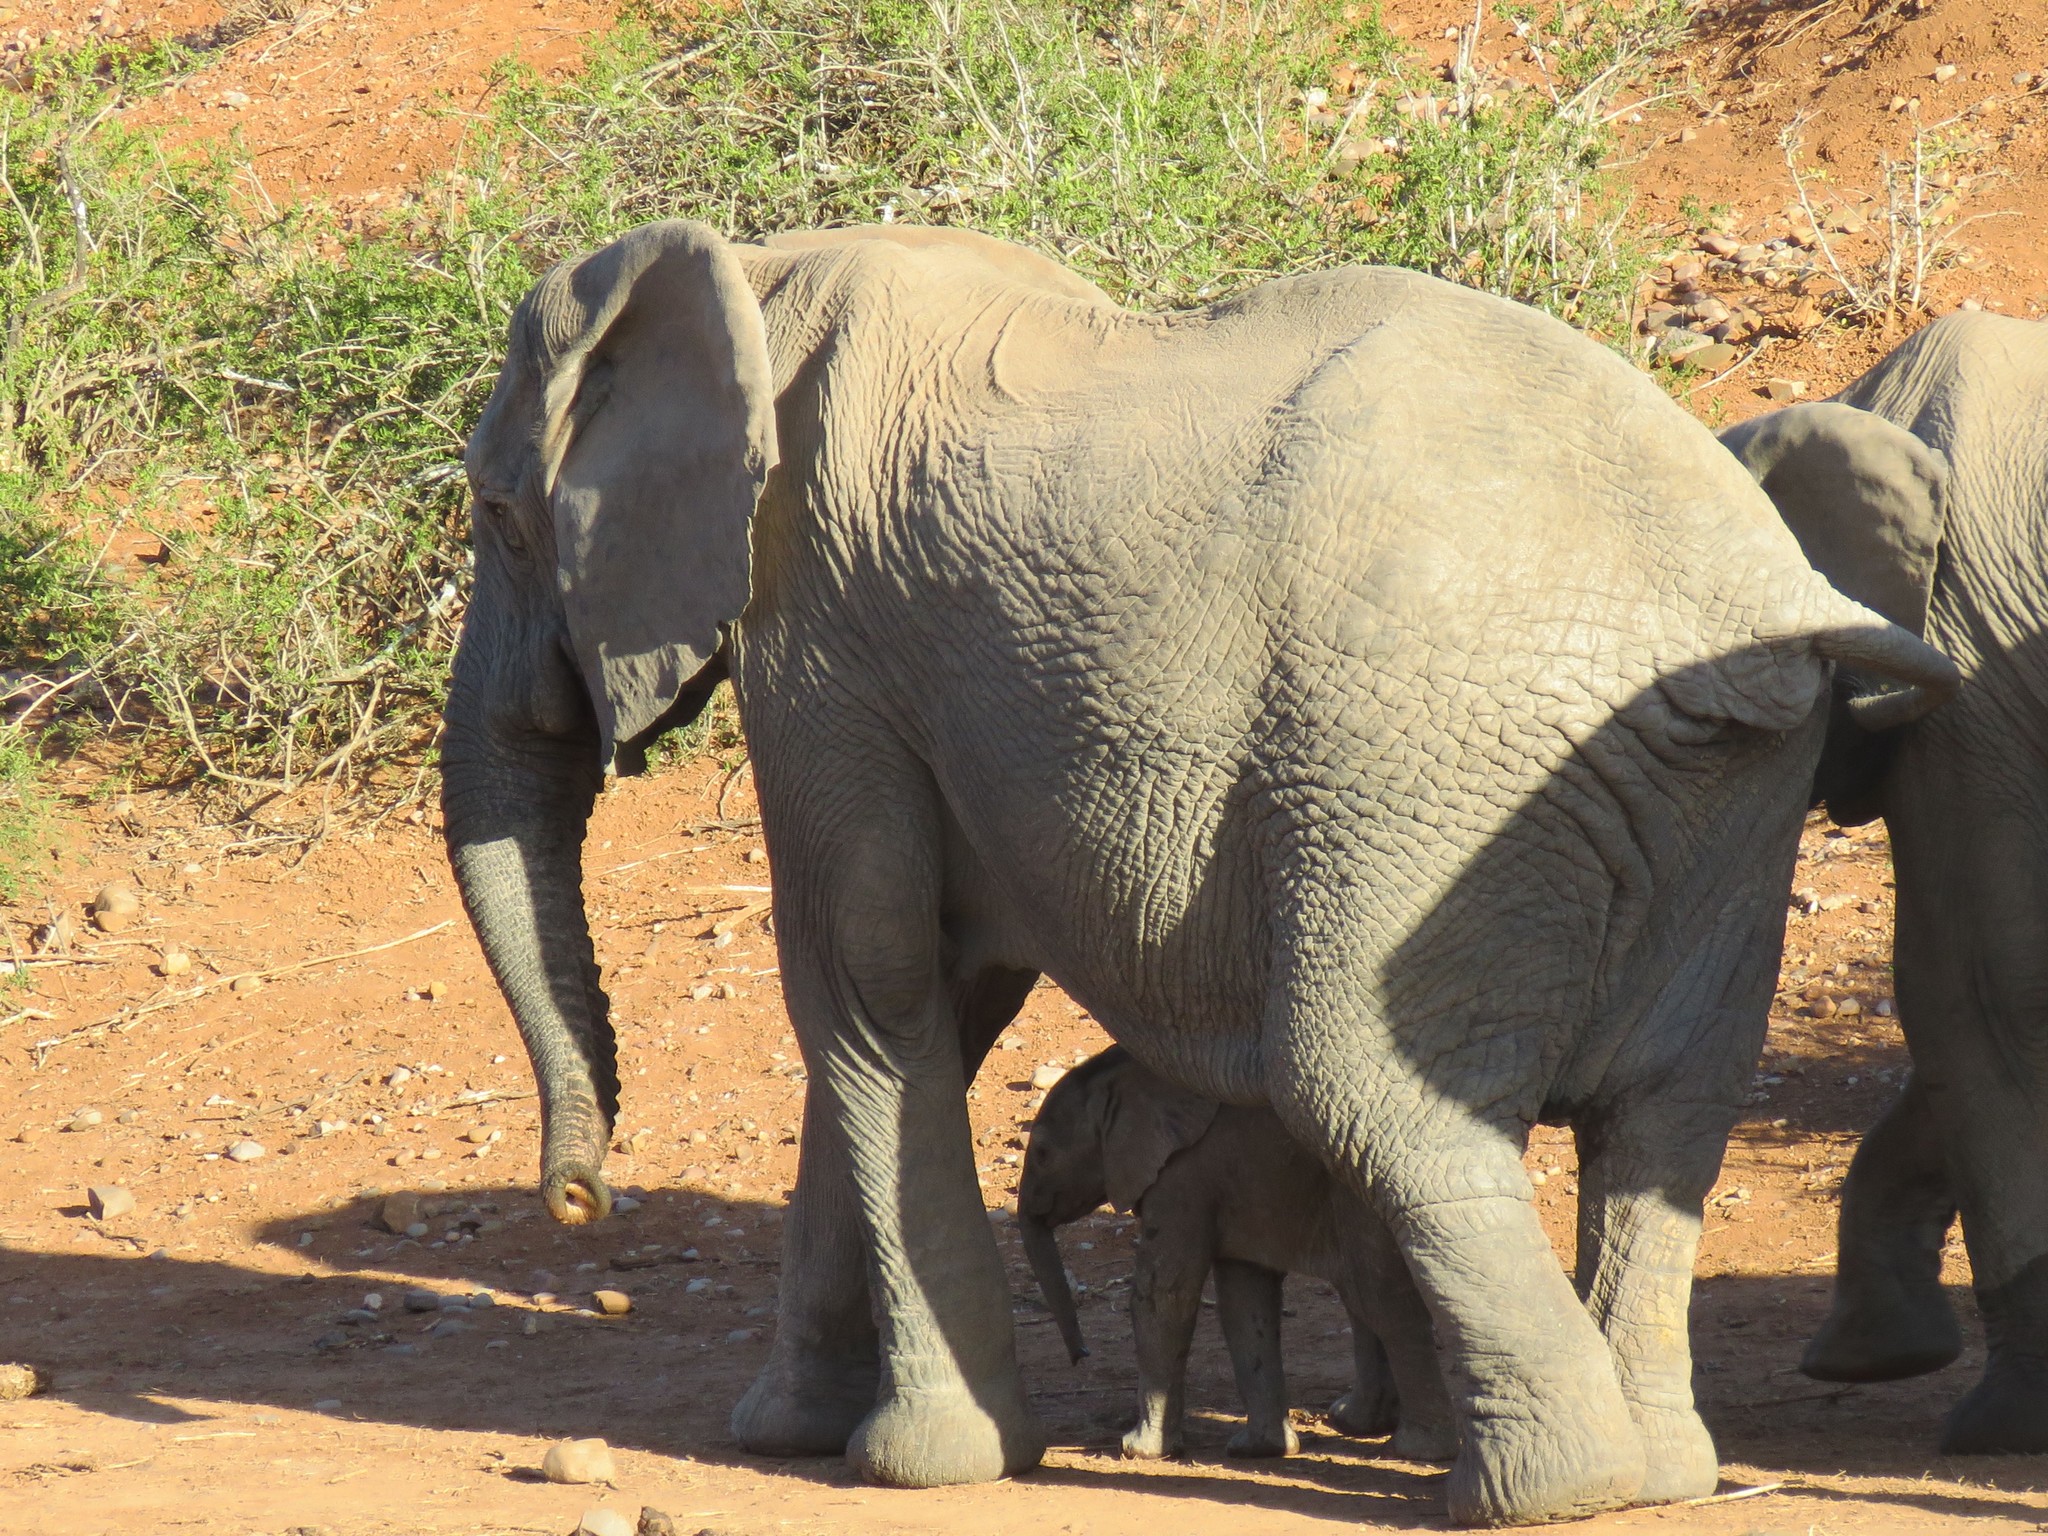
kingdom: Animalia
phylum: Chordata
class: Mammalia
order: Proboscidea
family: Elephantidae
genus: Loxodonta
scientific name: Loxodonta africana
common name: African elephant
